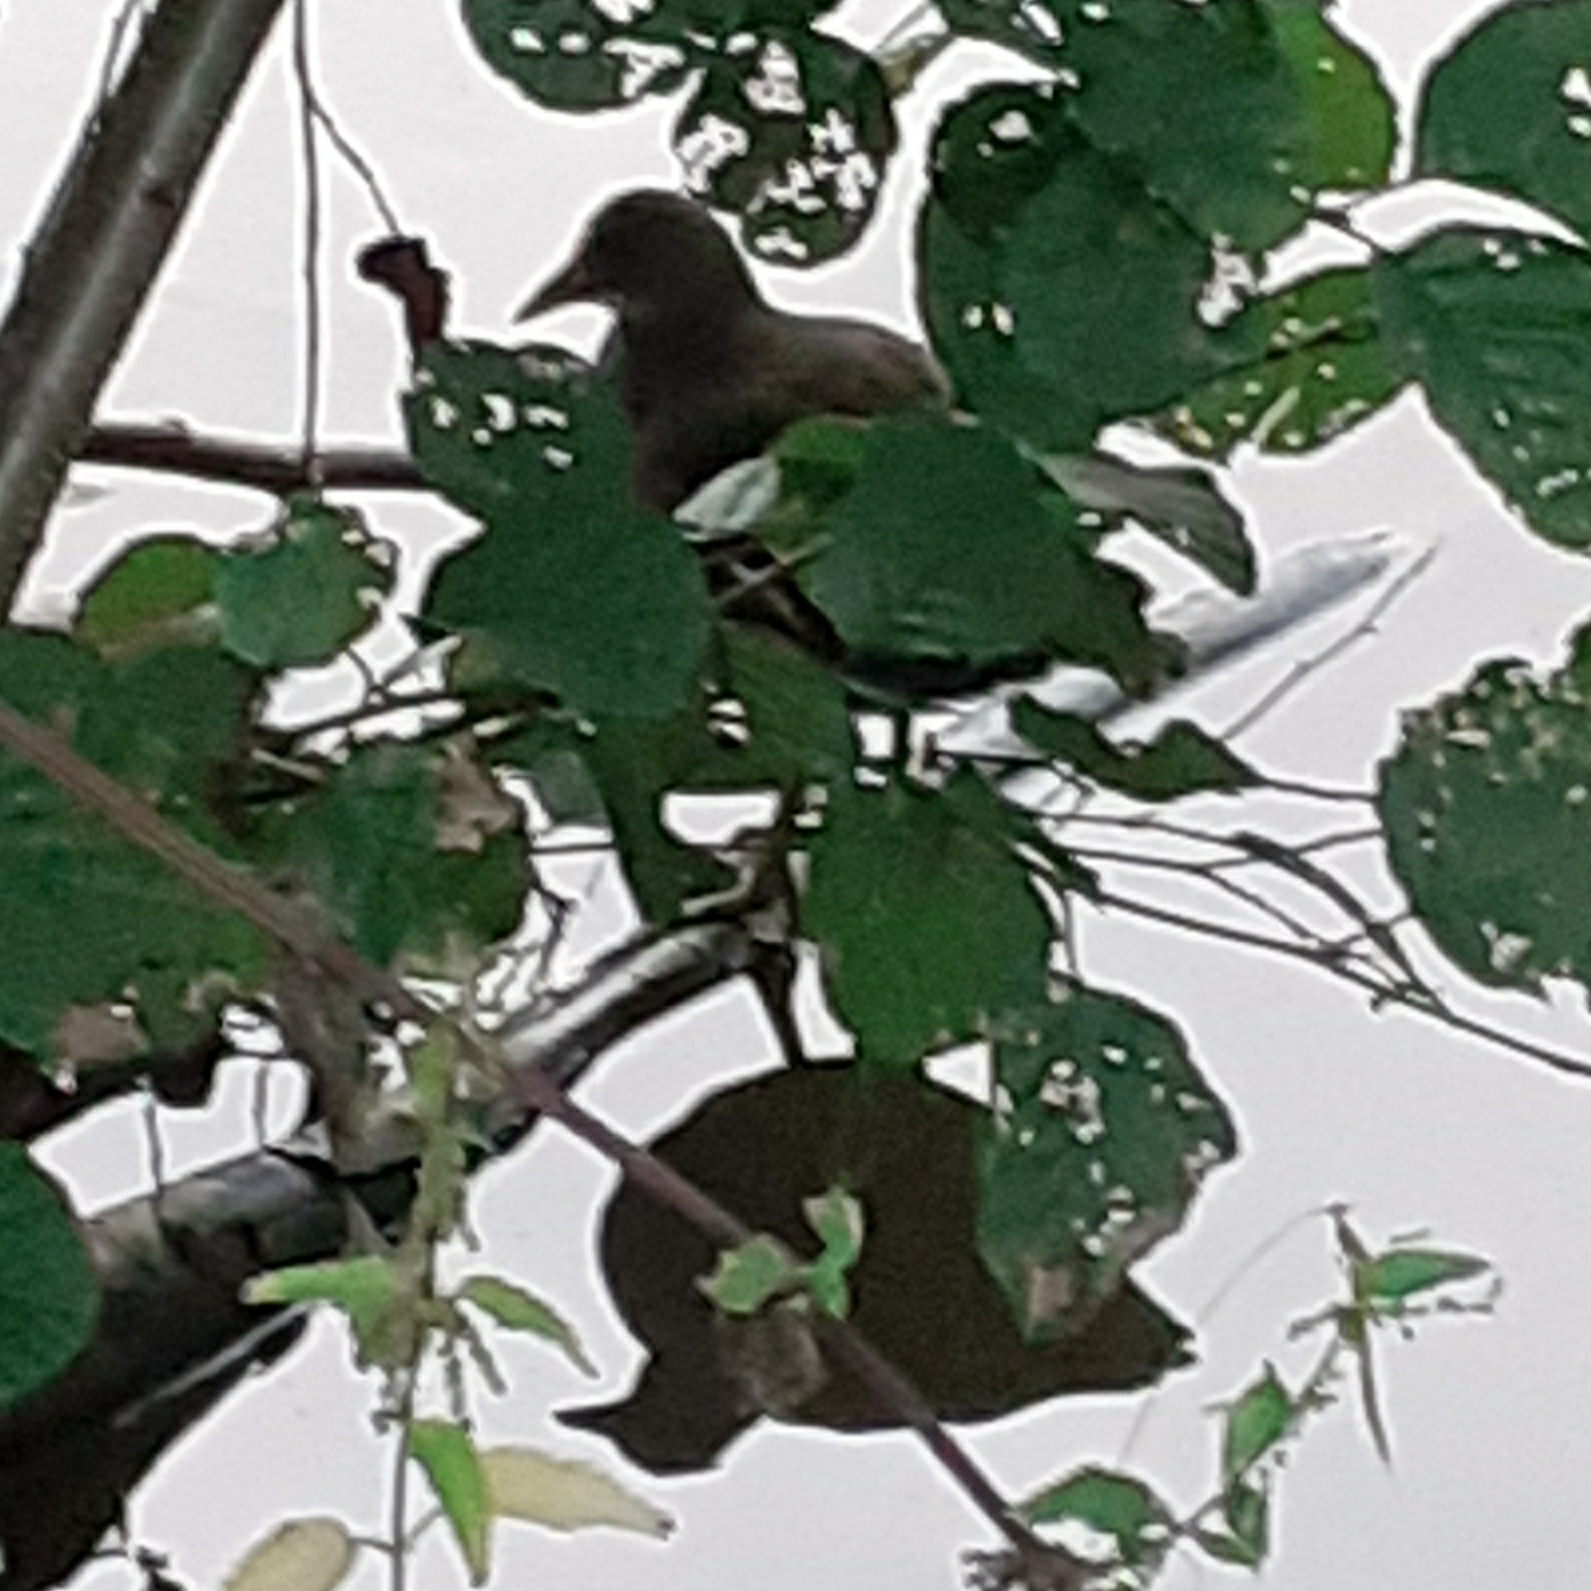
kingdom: Animalia
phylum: Chordata
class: Aves
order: Gruiformes
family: Rallidae
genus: Gallinula
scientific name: Gallinula chloropus
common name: Common moorhen
